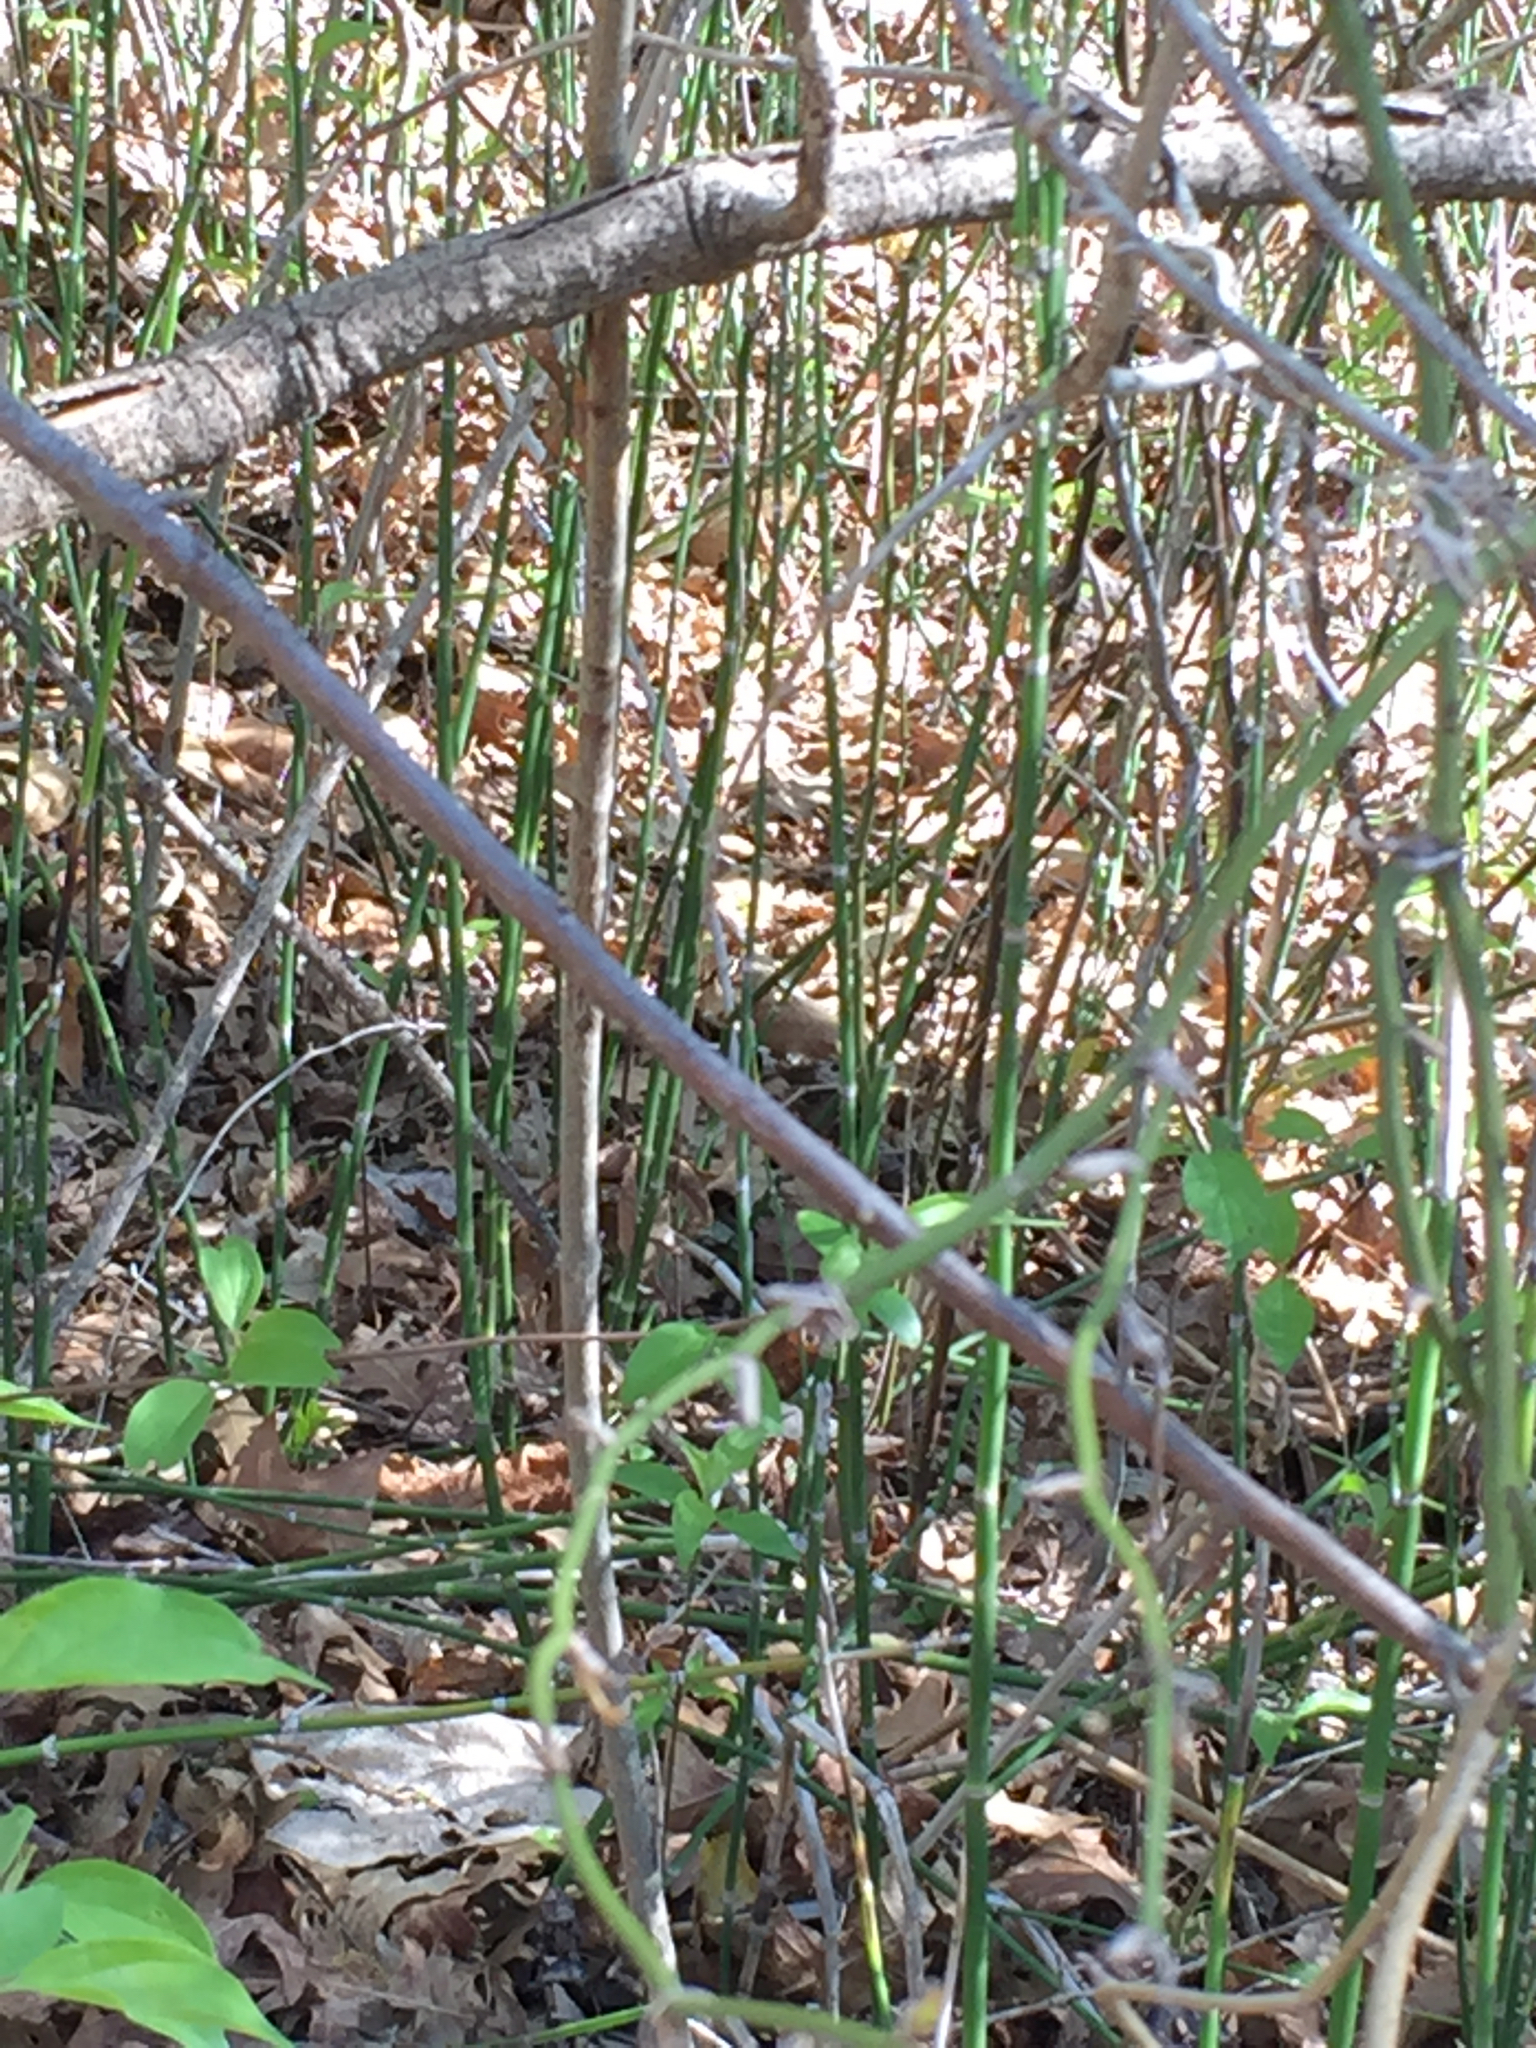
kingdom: Plantae
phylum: Tracheophyta
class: Polypodiopsida
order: Equisetales
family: Equisetaceae
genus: Equisetum
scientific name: Equisetum praealtum
